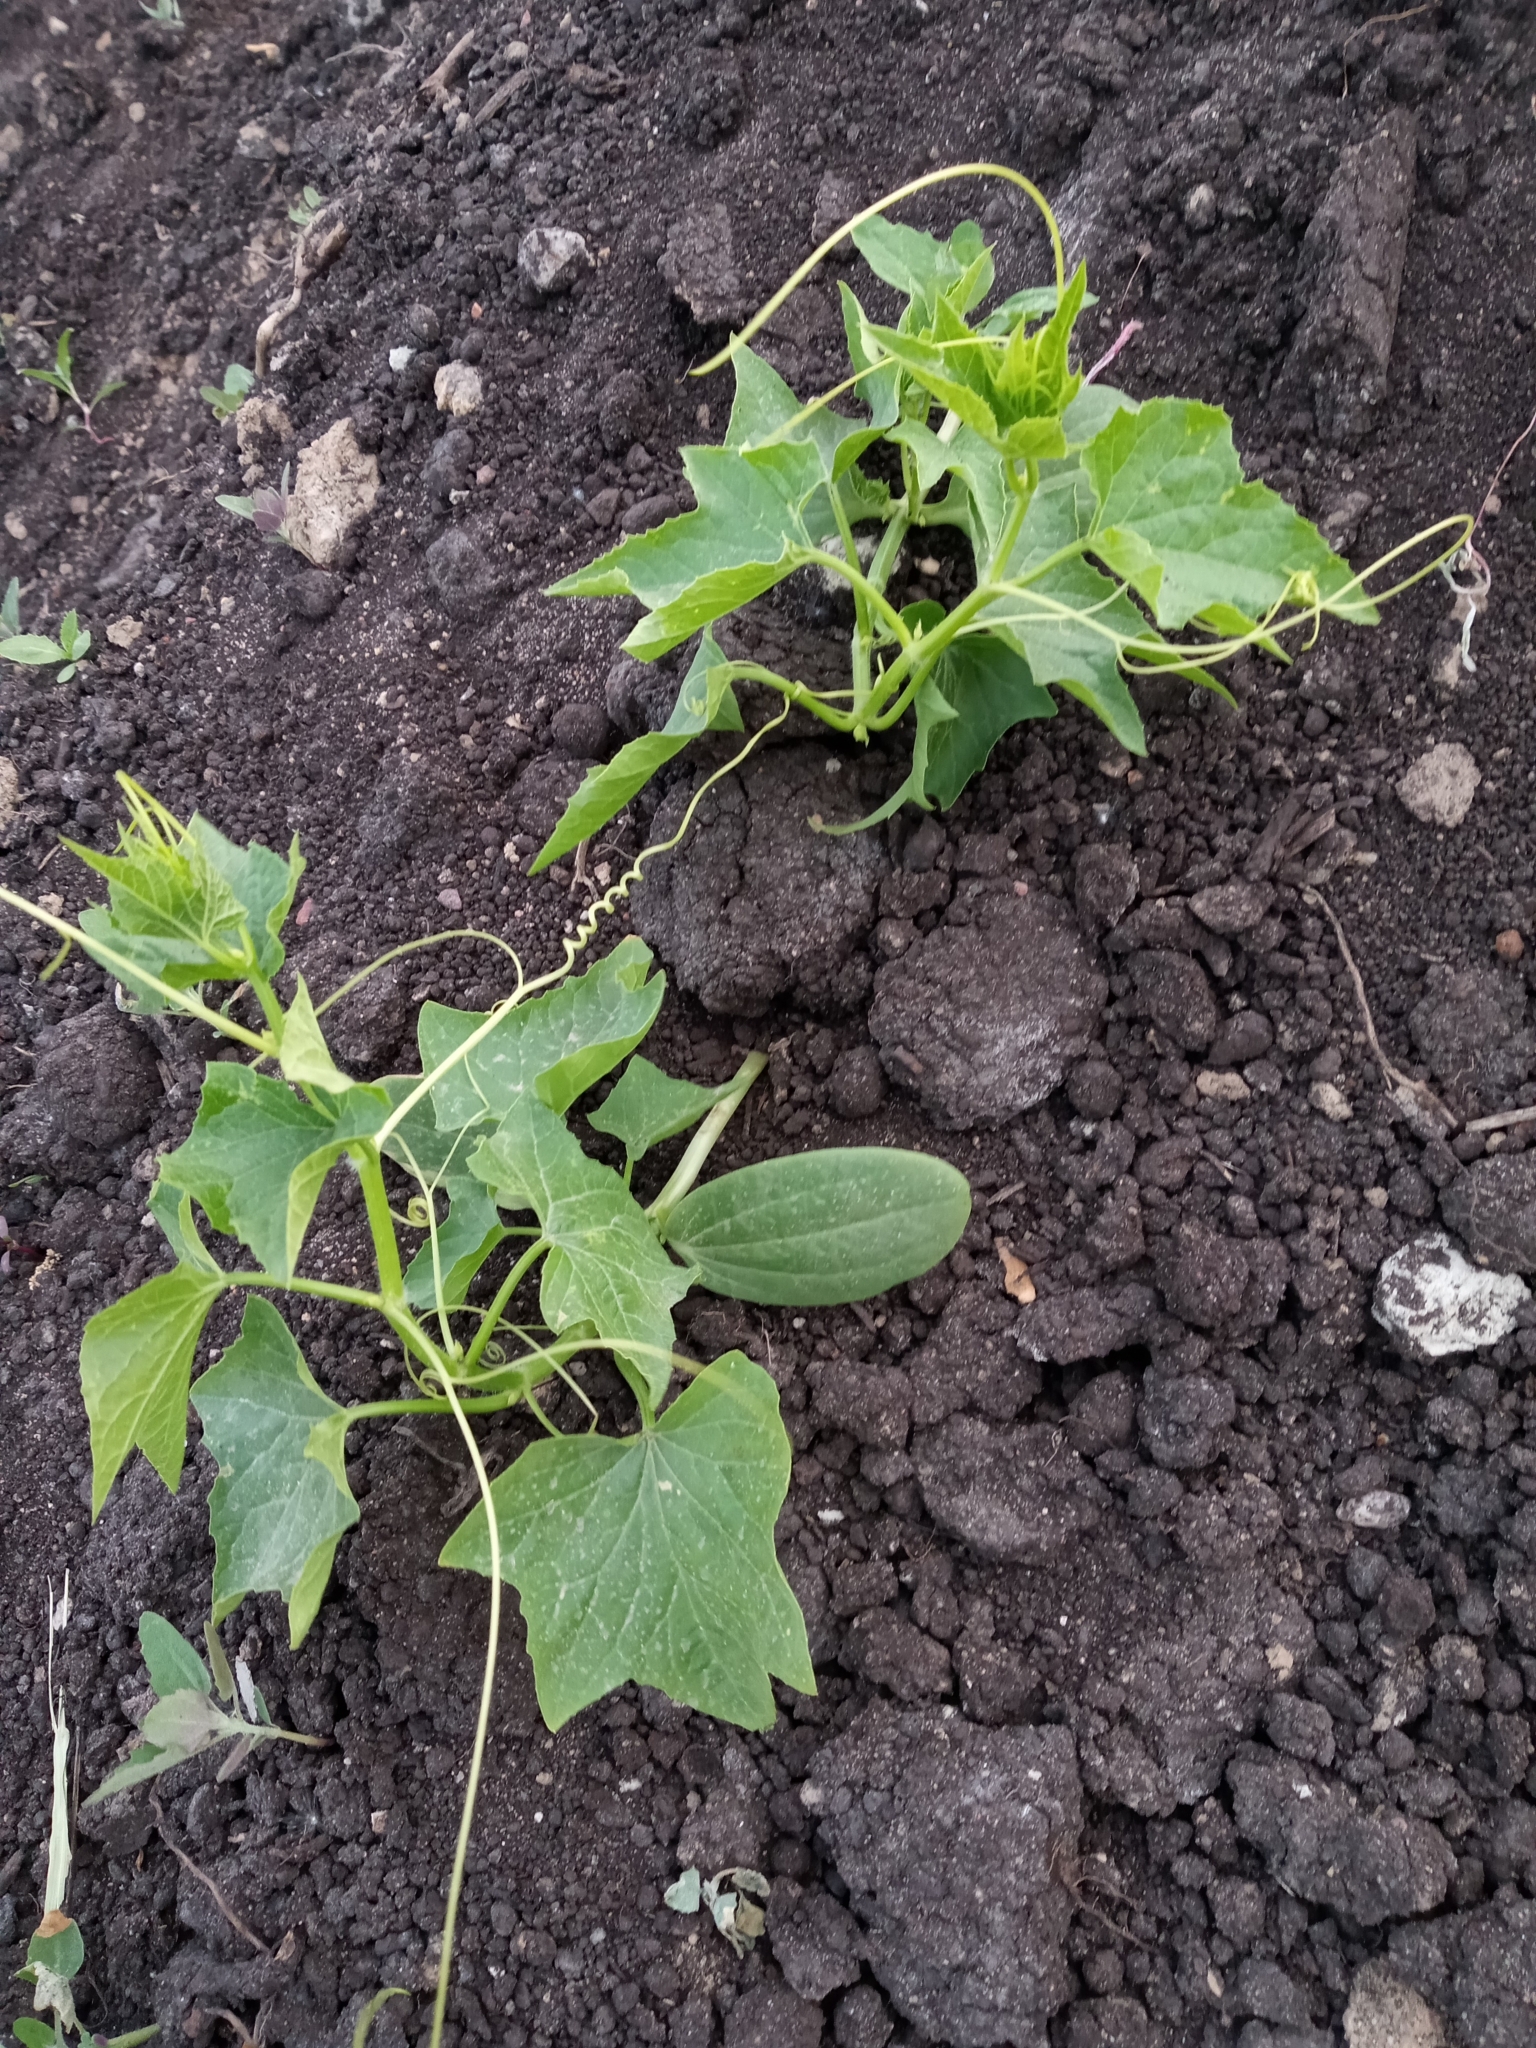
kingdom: Plantae
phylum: Tracheophyta
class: Magnoliopsida
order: Cucurbitales
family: Cucurbitaceae
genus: Echinocystis
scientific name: Echinocystis lobata
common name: Wild cucumber
